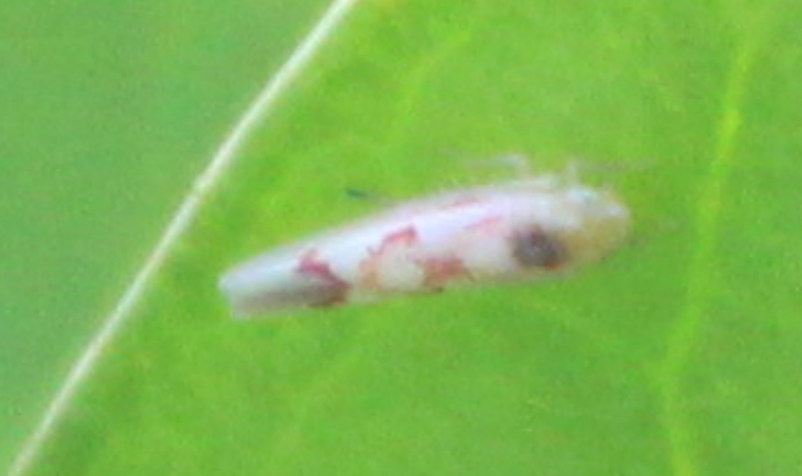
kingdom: Animalia
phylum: Arthropoda
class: Insecta
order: Hemiptera
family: Cicadellidae
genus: Zygina
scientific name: Zygina flammigera
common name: Leafhopper
